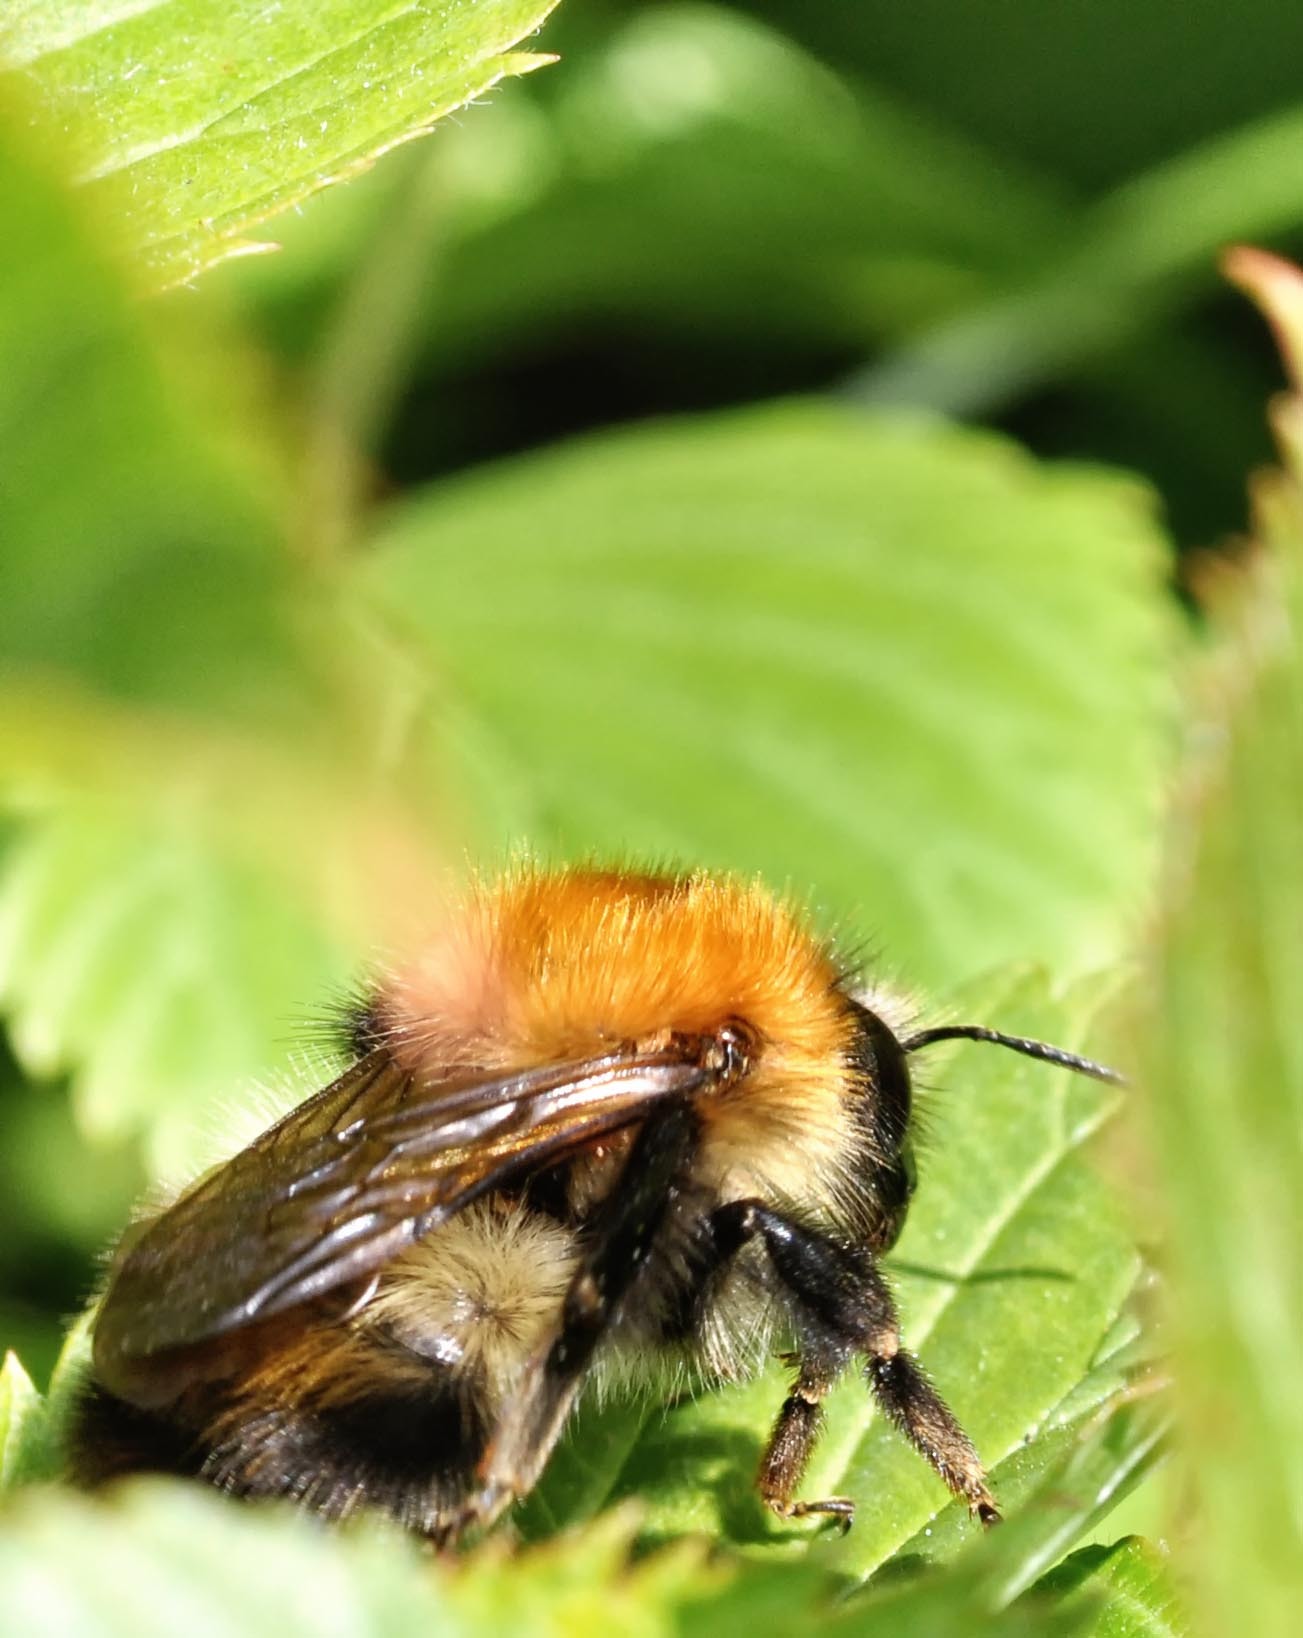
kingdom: Animalia
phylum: Arthropoda
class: Insecta
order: Hymenoptera
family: Apidae
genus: Bombus
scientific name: Bombus pascuorum
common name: Common carder bee
